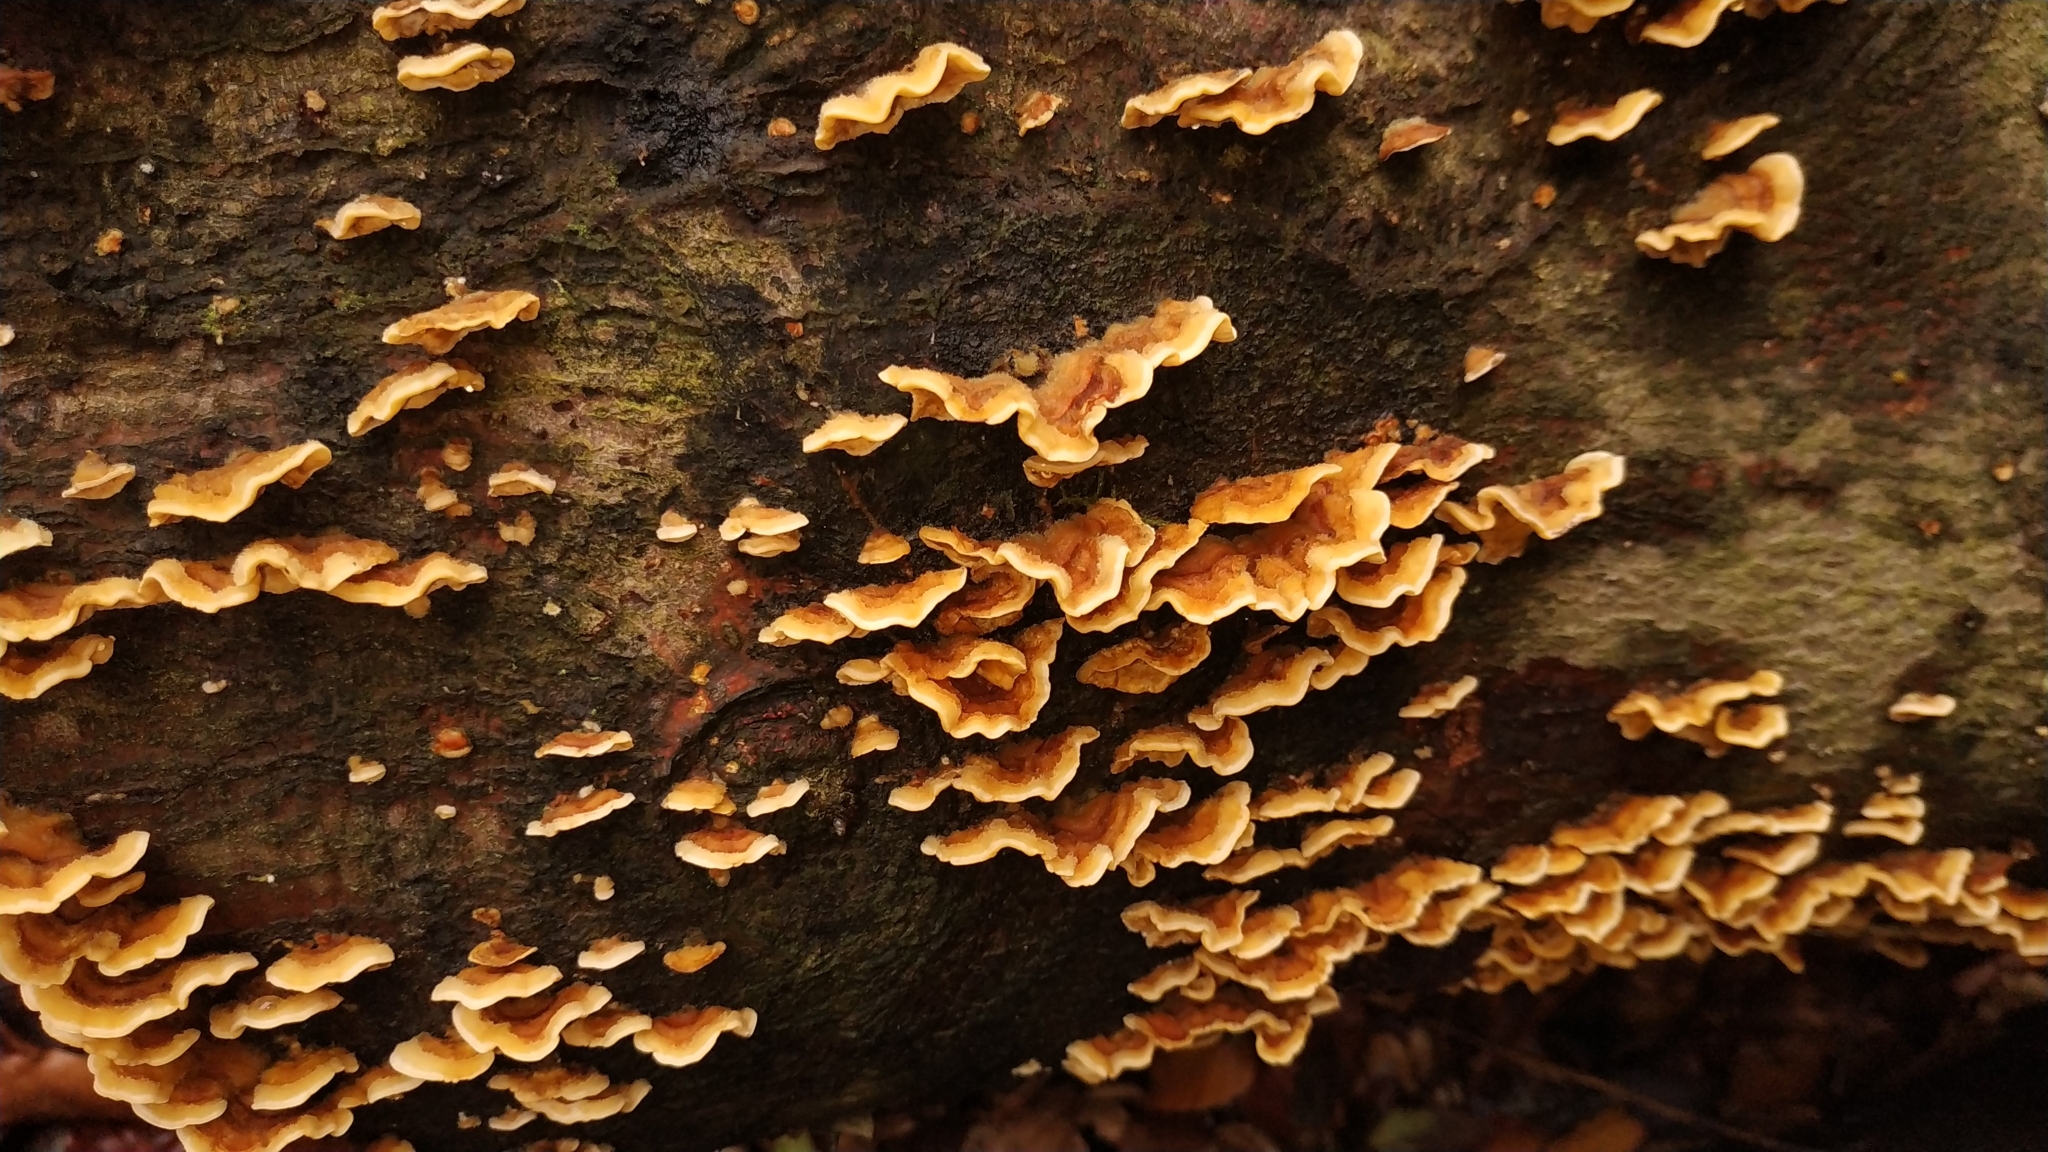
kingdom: Fungi
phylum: Basidiomycota
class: Agaricomycetes
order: Russulales
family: Stereaceae
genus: Stereum
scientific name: Stereum hirsutum
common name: Hairy curtain crust
